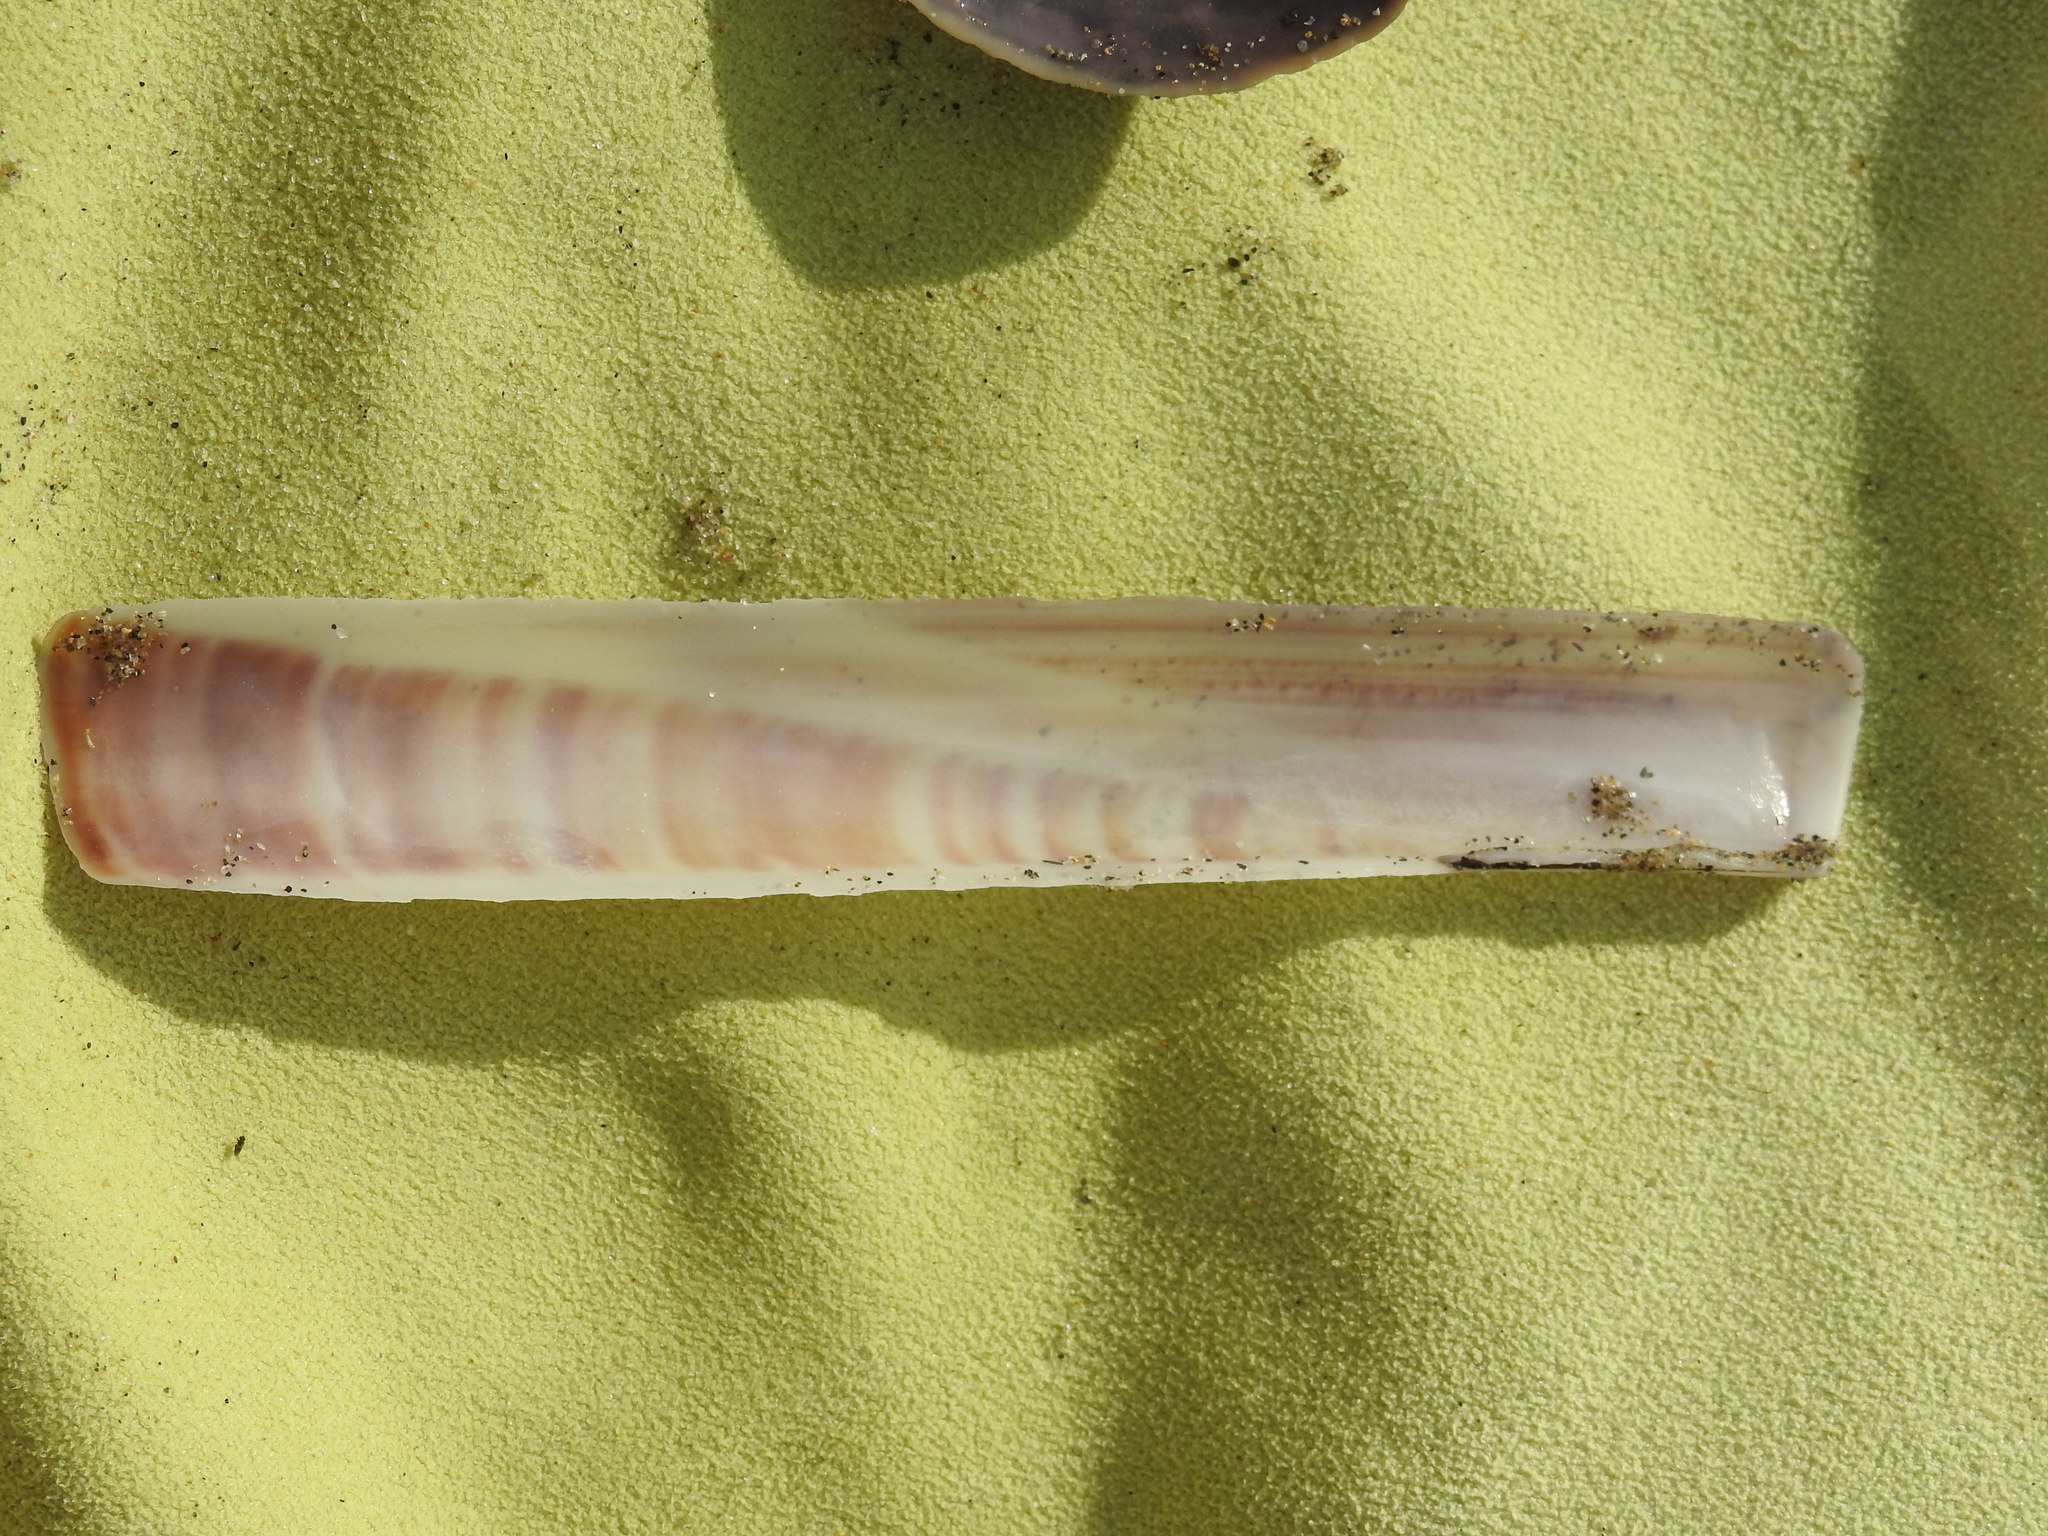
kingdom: Animalia
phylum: Mollusca
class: Bivalvia
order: Adapedonta
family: Pharidae
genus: Ensis
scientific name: Ensis minor
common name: Minor jackknife clam
